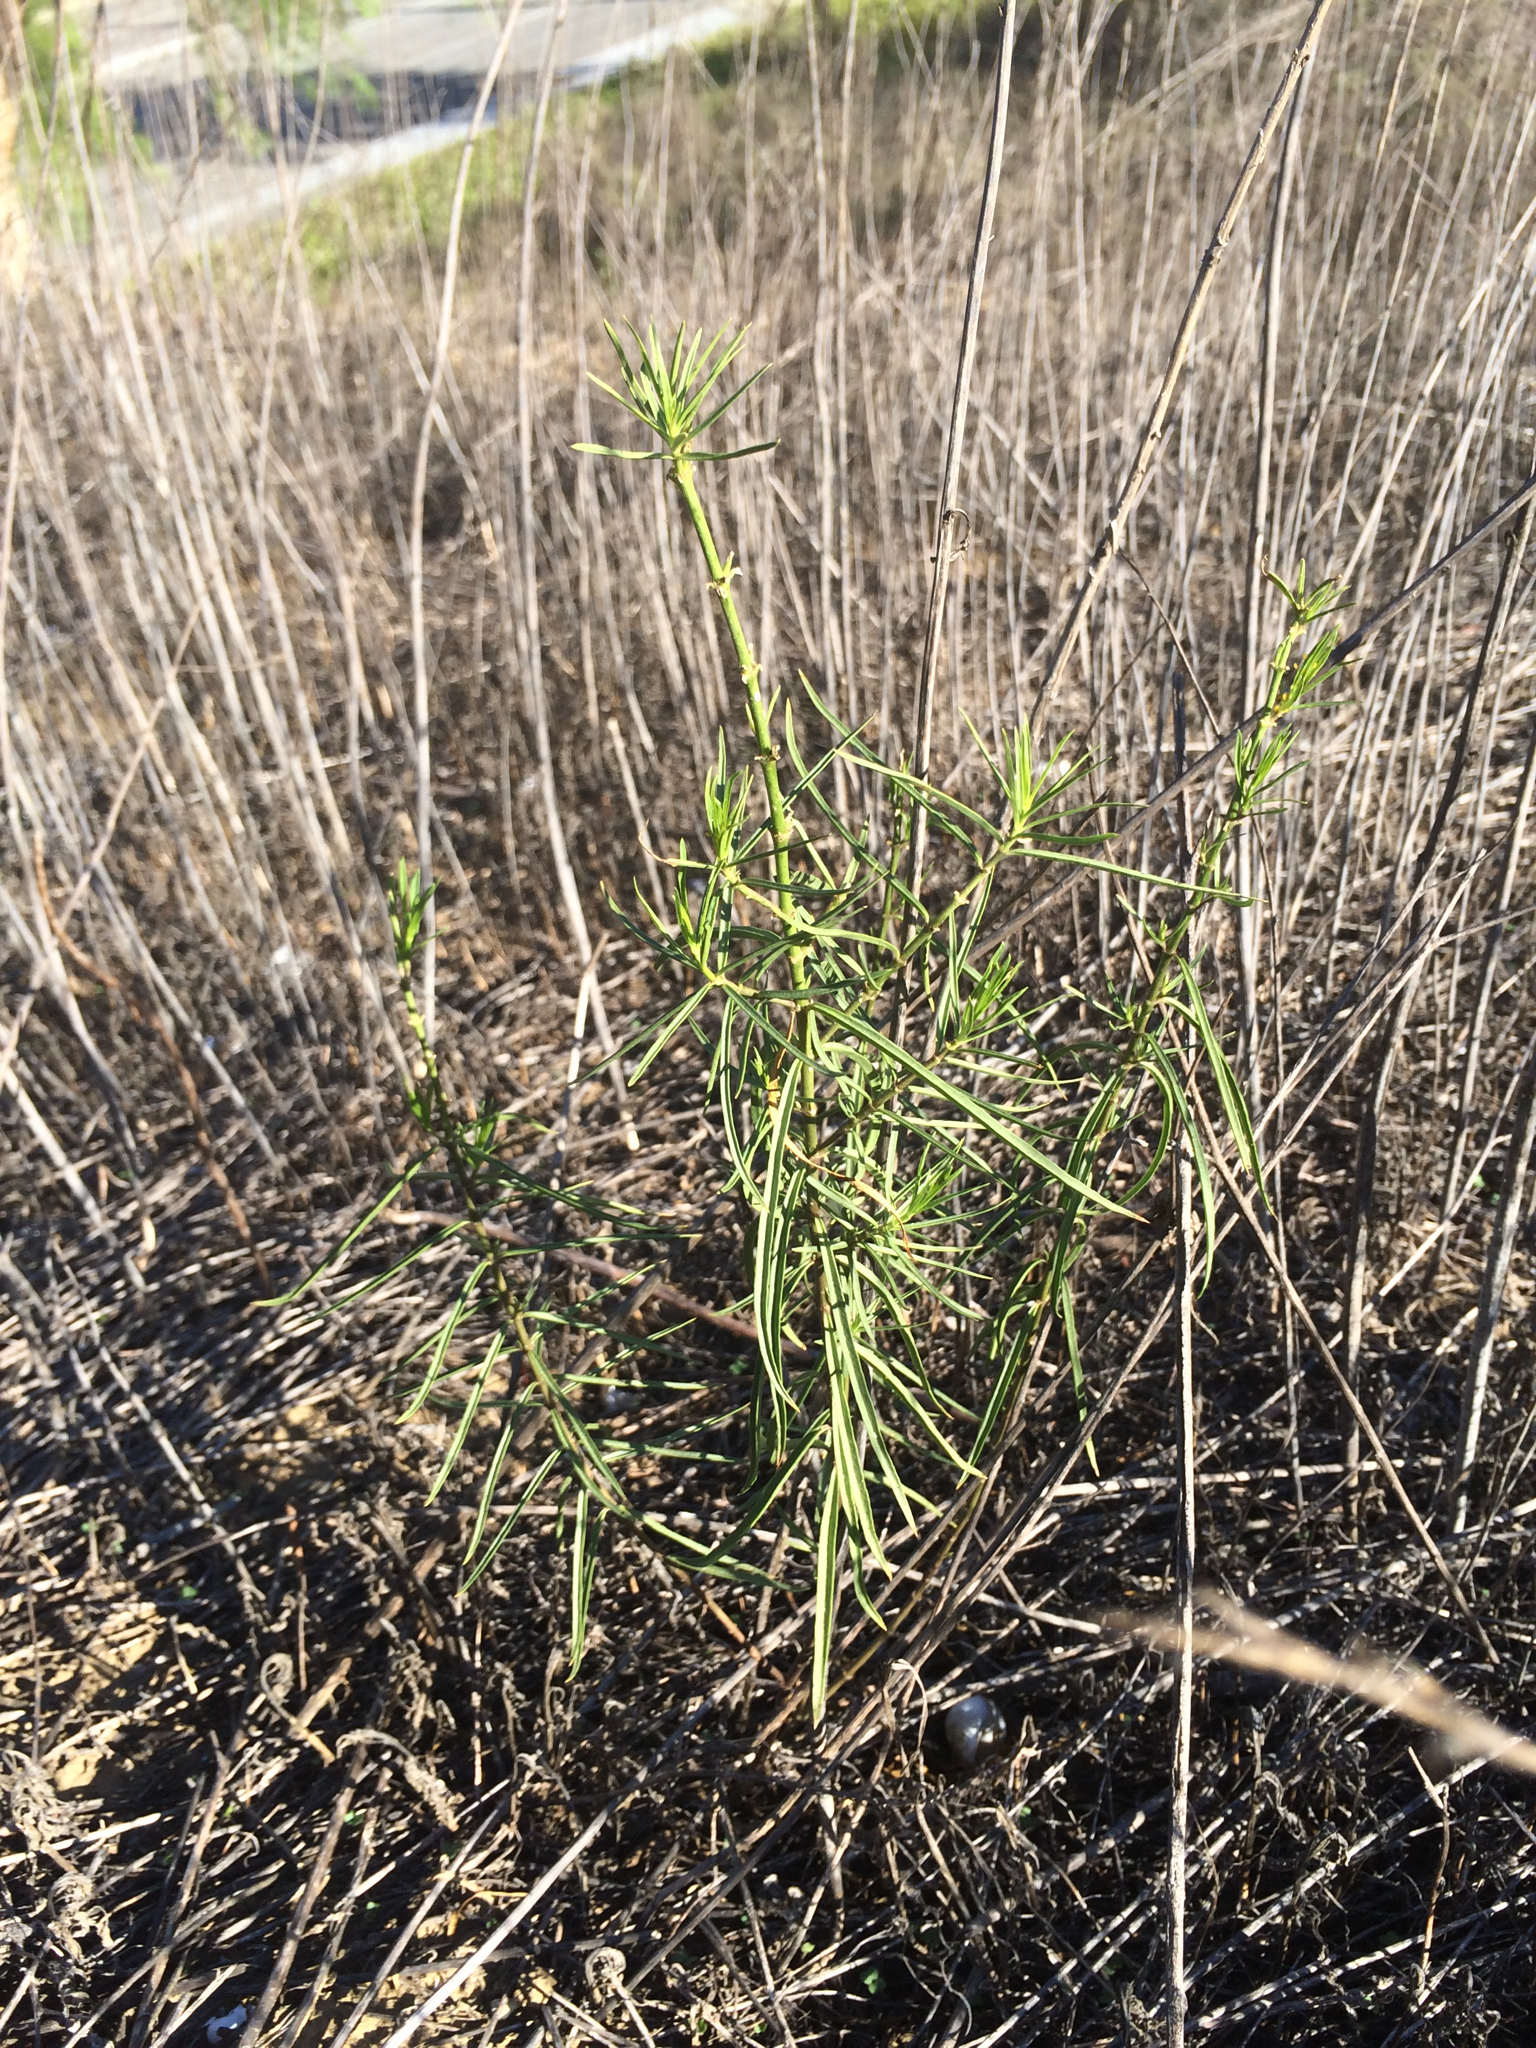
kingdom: Plantae
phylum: Tracheophyta
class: Magnoliopsida
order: Gentianales
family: Apocynaceae
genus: Asclepias
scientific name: Asclepias fascicularis
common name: Mexican milkweed
